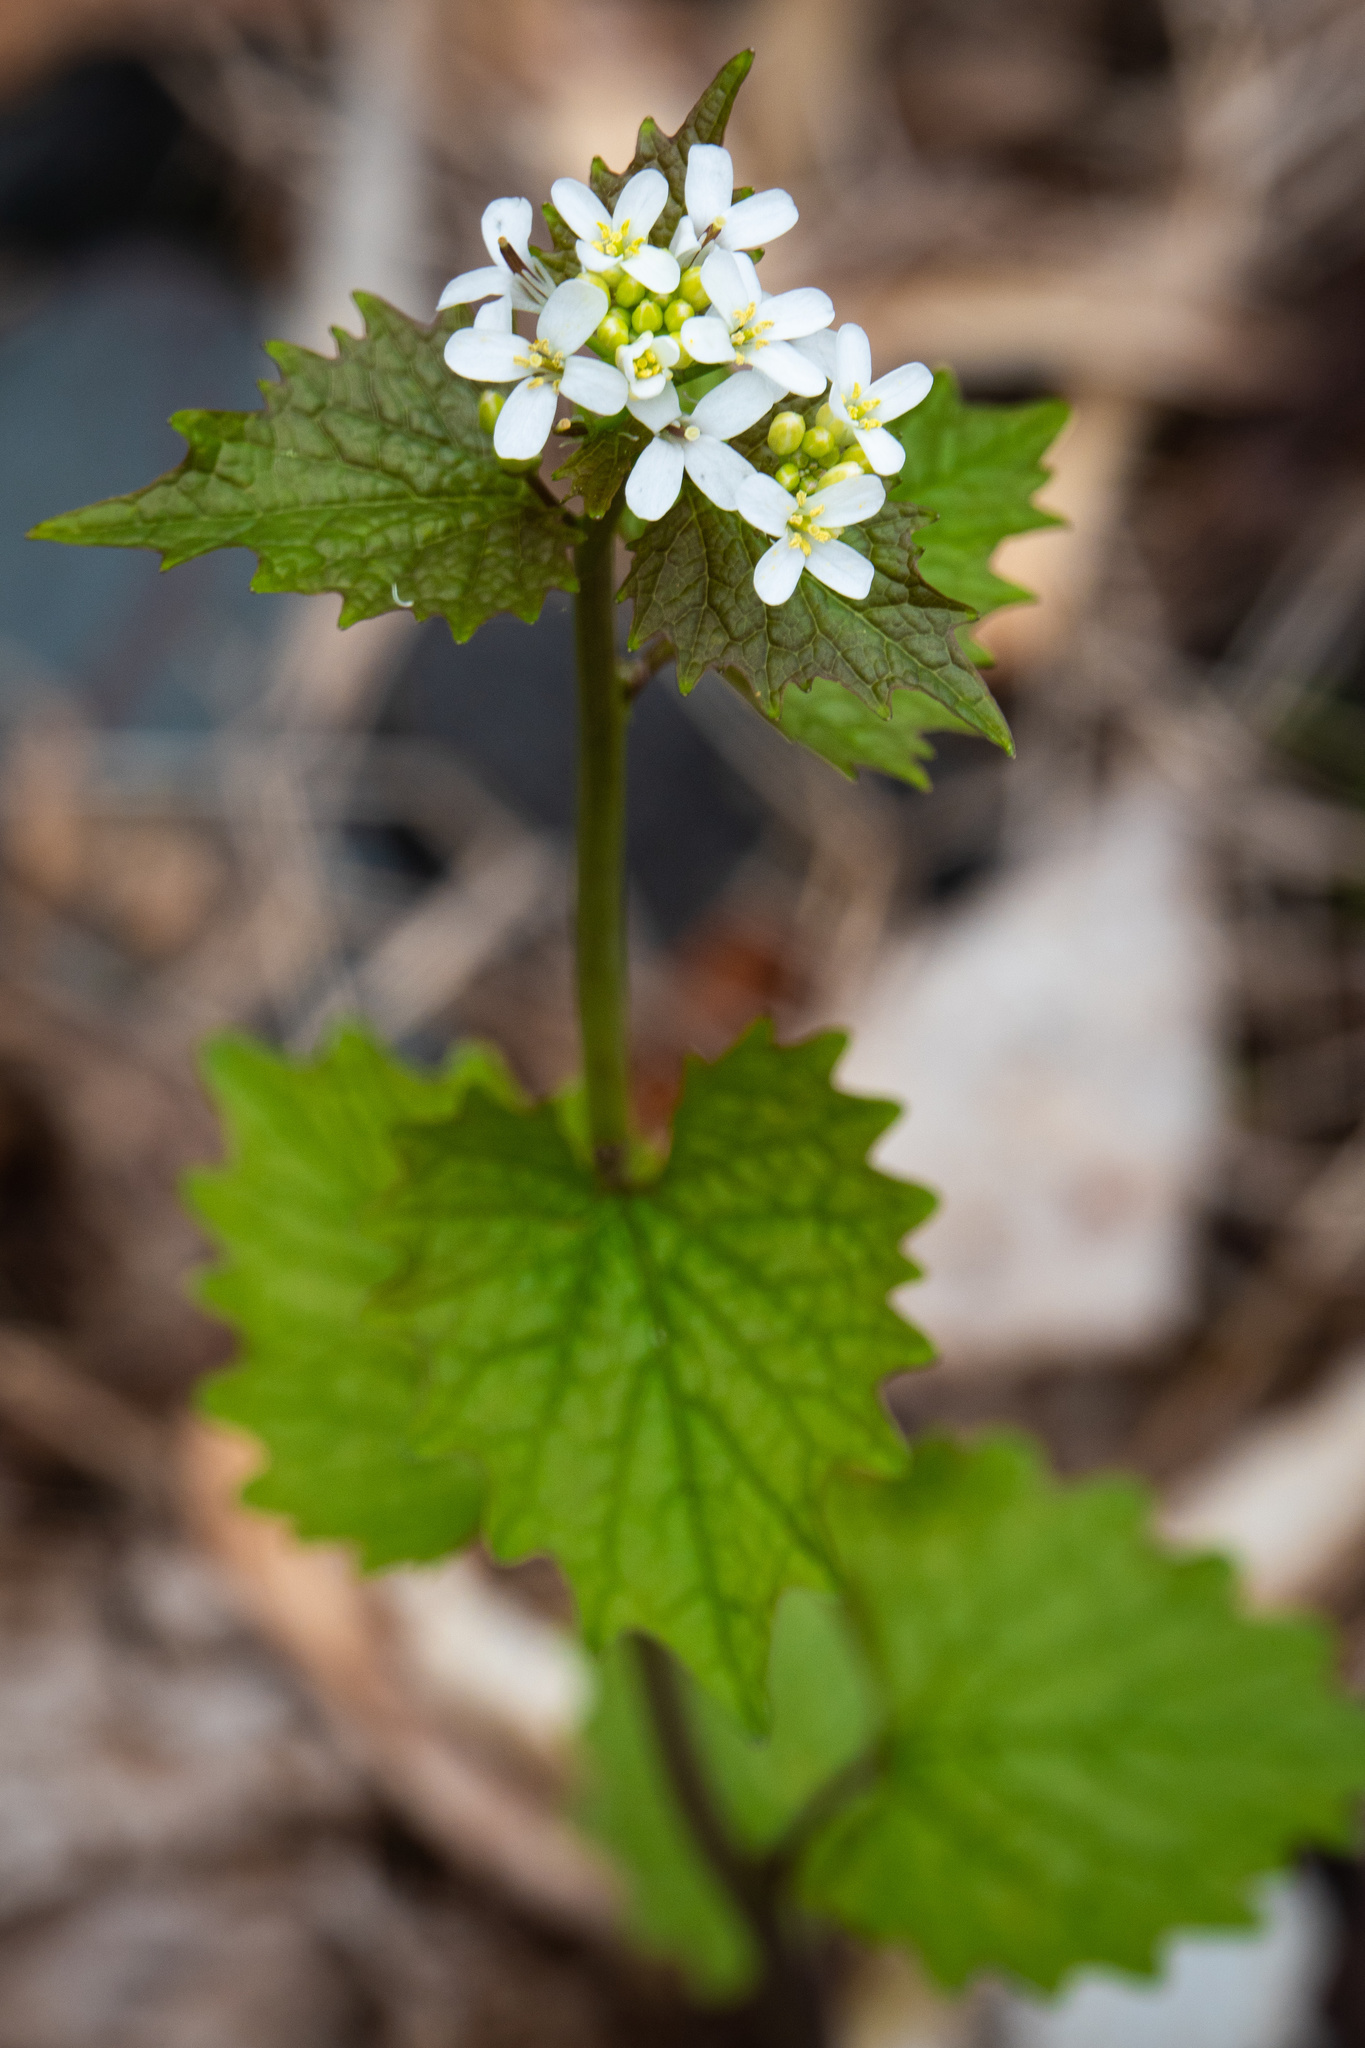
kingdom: Plantae
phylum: Tracheophyta
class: Magnoliopsida
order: Brassicales
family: Brassicaceae
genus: Alliaria
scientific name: Alliaria petiolata
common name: Garlic mustard
